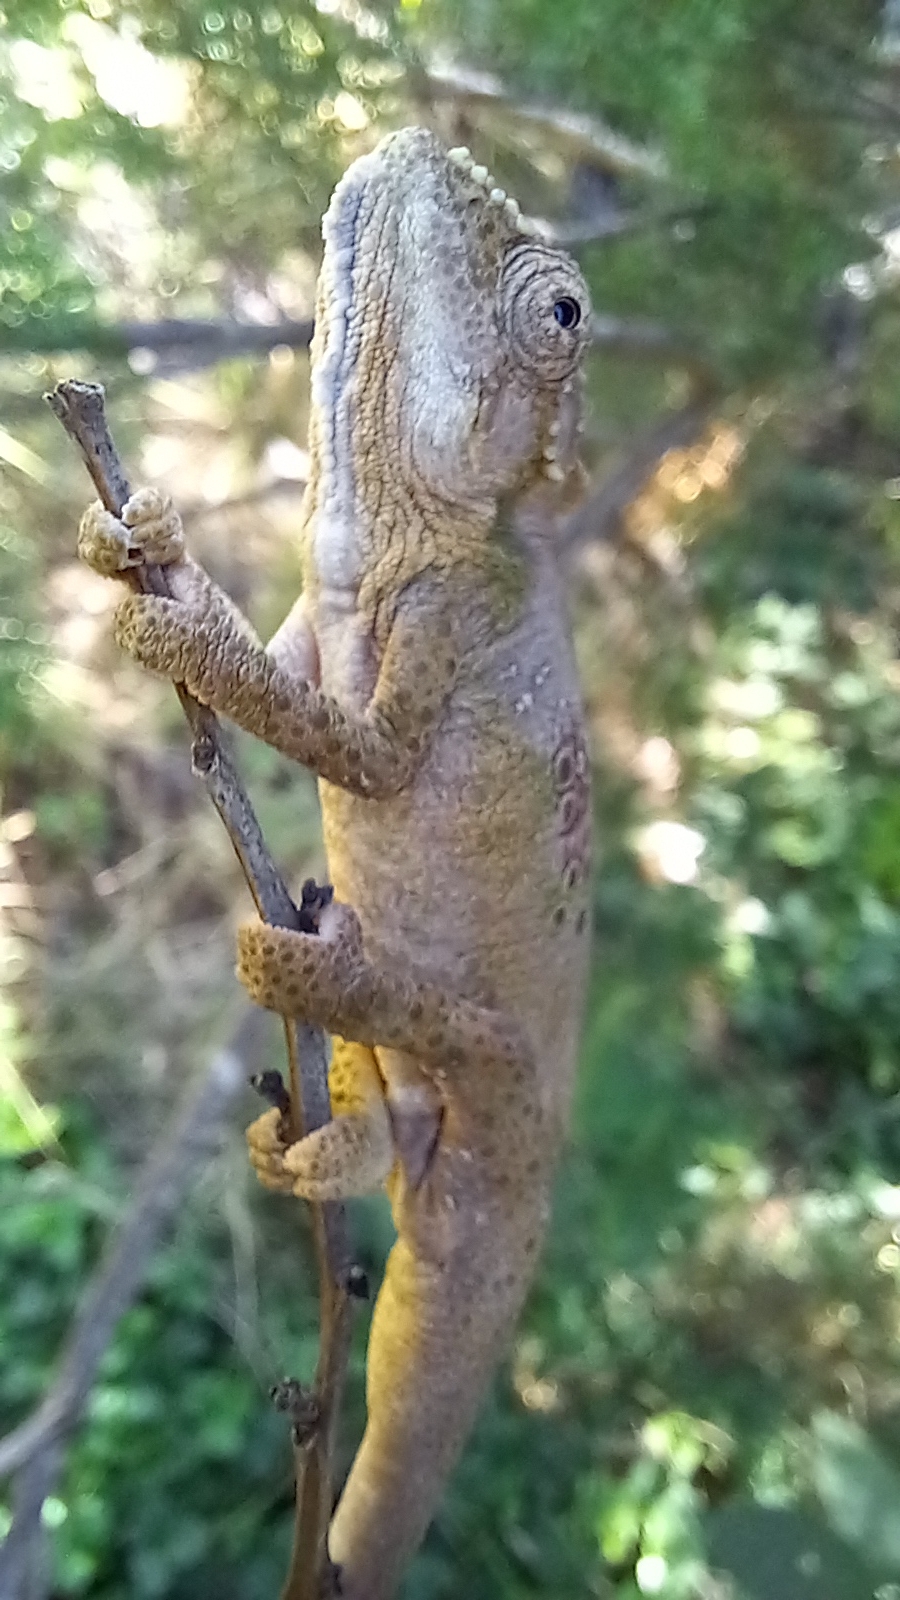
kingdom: Animalia
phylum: Chordata
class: Squamata
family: Chamaeleonidae
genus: Bradypodion
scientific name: Bradypodion ventrale
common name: Eastern cape dwarf chameleon
